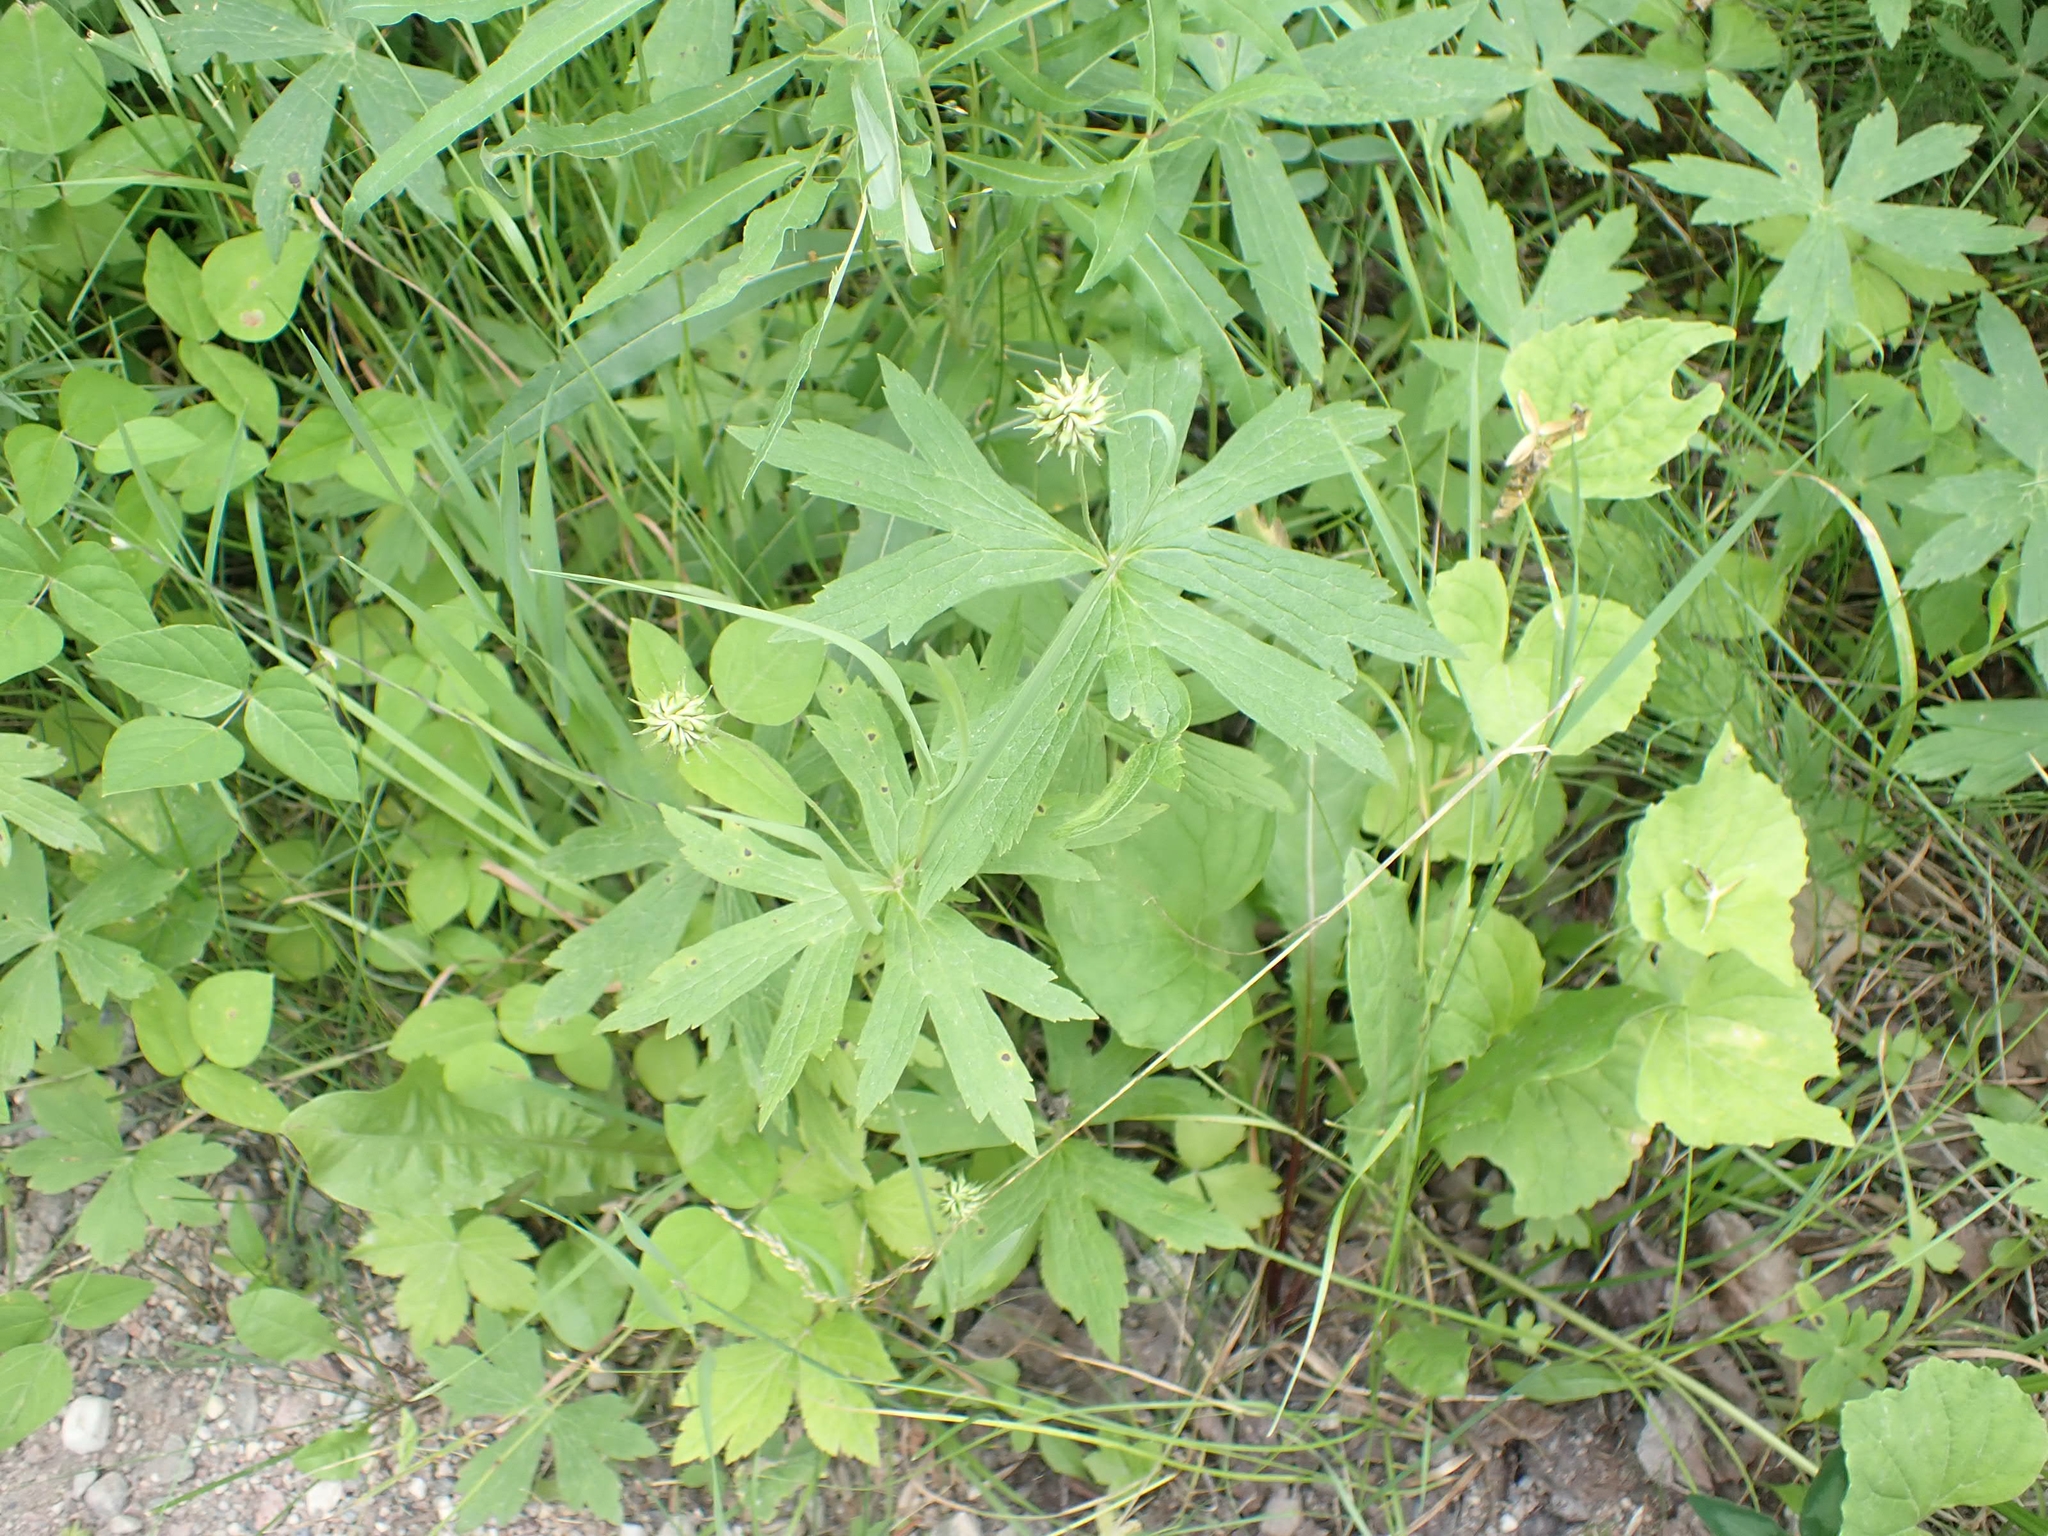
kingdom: Plantae
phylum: Tracheophyta
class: Magnoliopsida
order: Ranunculales
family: Ranunculaceae
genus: Anemonastrum
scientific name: Anemonastrum canadense
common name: Canada anemone
